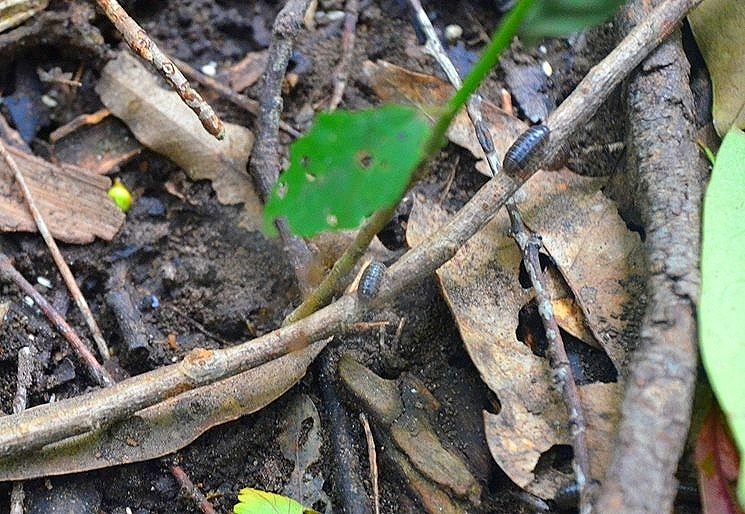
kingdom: Animalia
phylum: Arthropoda
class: Malacostraca
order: Isopoda
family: Armadillidiidae
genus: Armadillidium
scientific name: Armadillidium vulgare
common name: Common pill woodlouse
